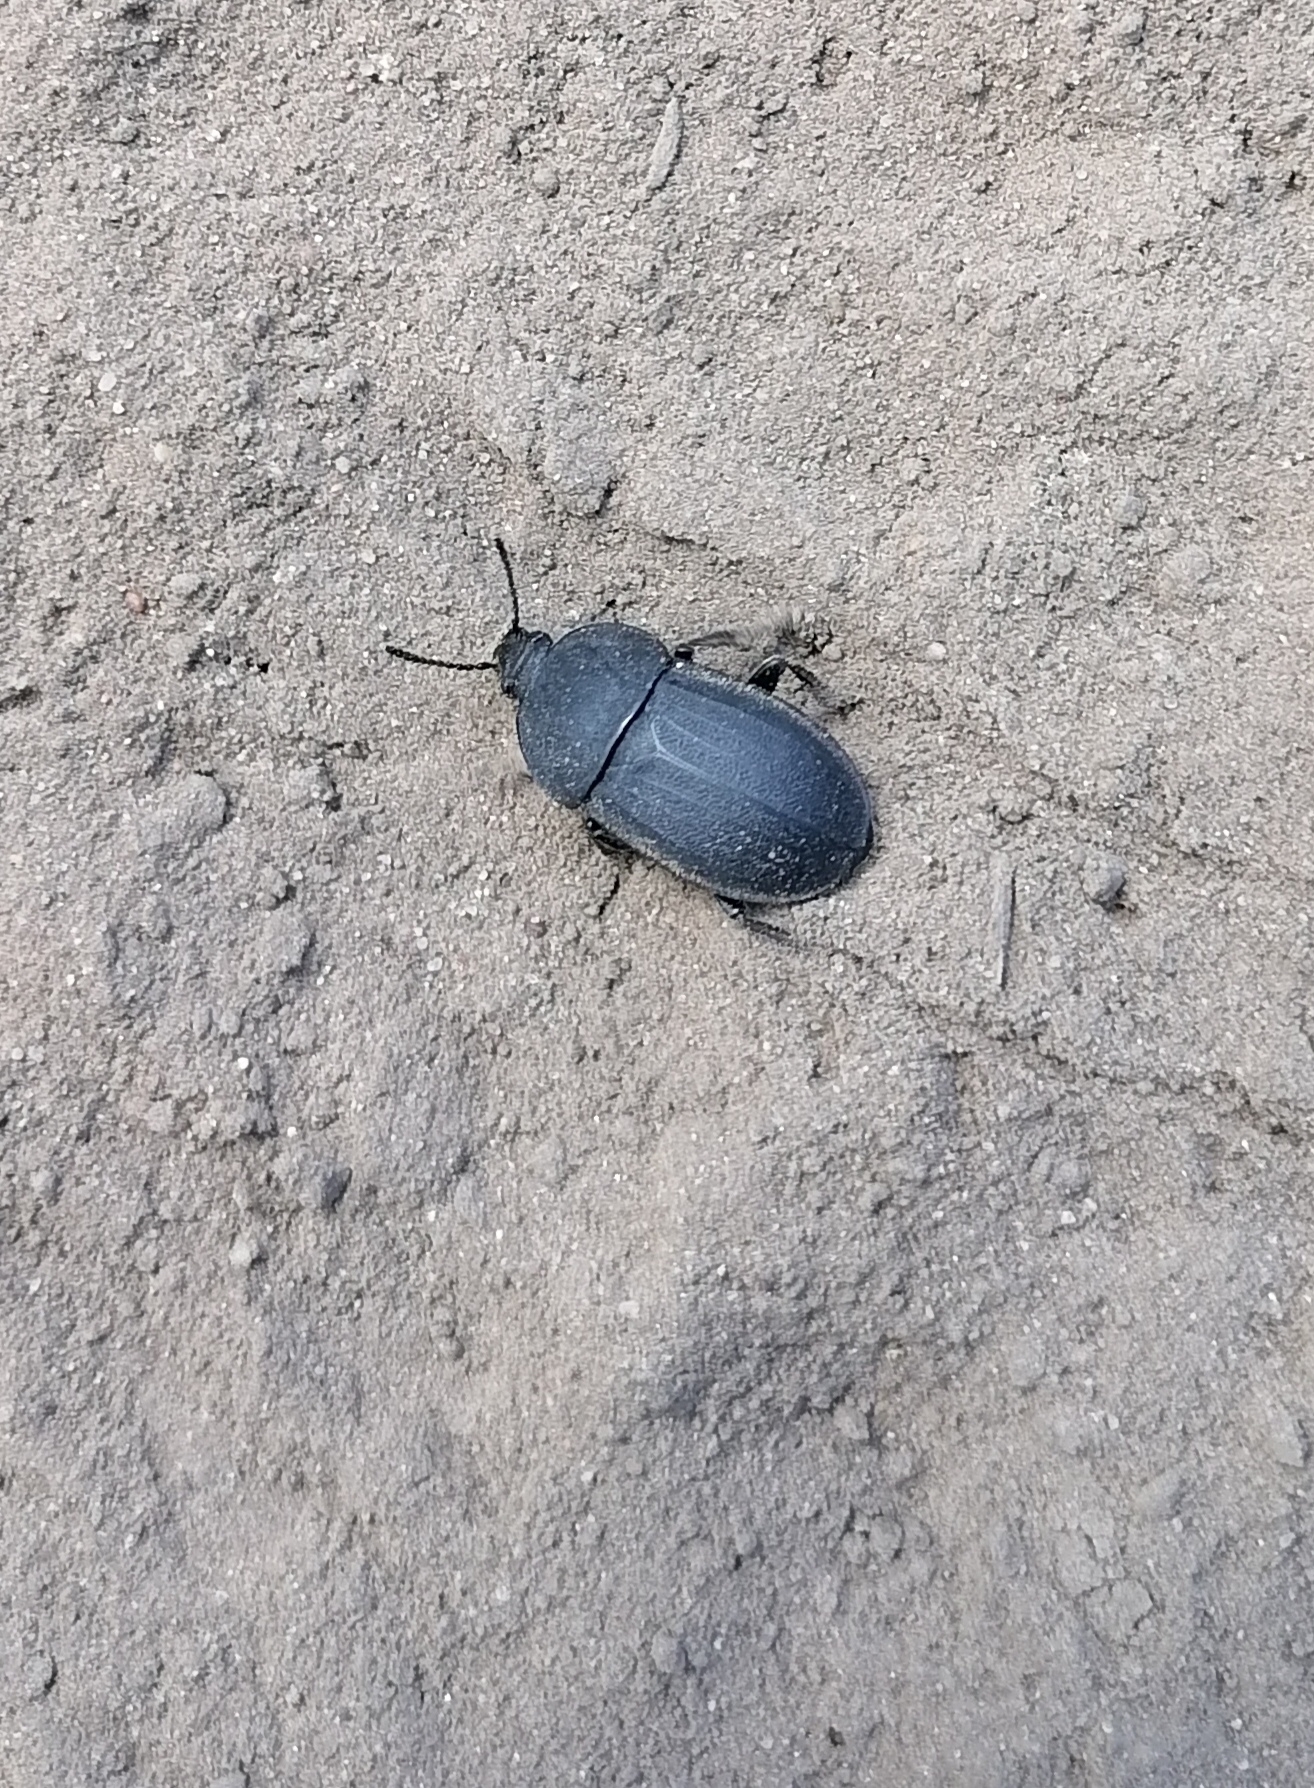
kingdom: Animalia
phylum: Arthropoda
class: Insecta
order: Coleoptera
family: Staphylinidae
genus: Silpha
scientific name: Silpha obscura
